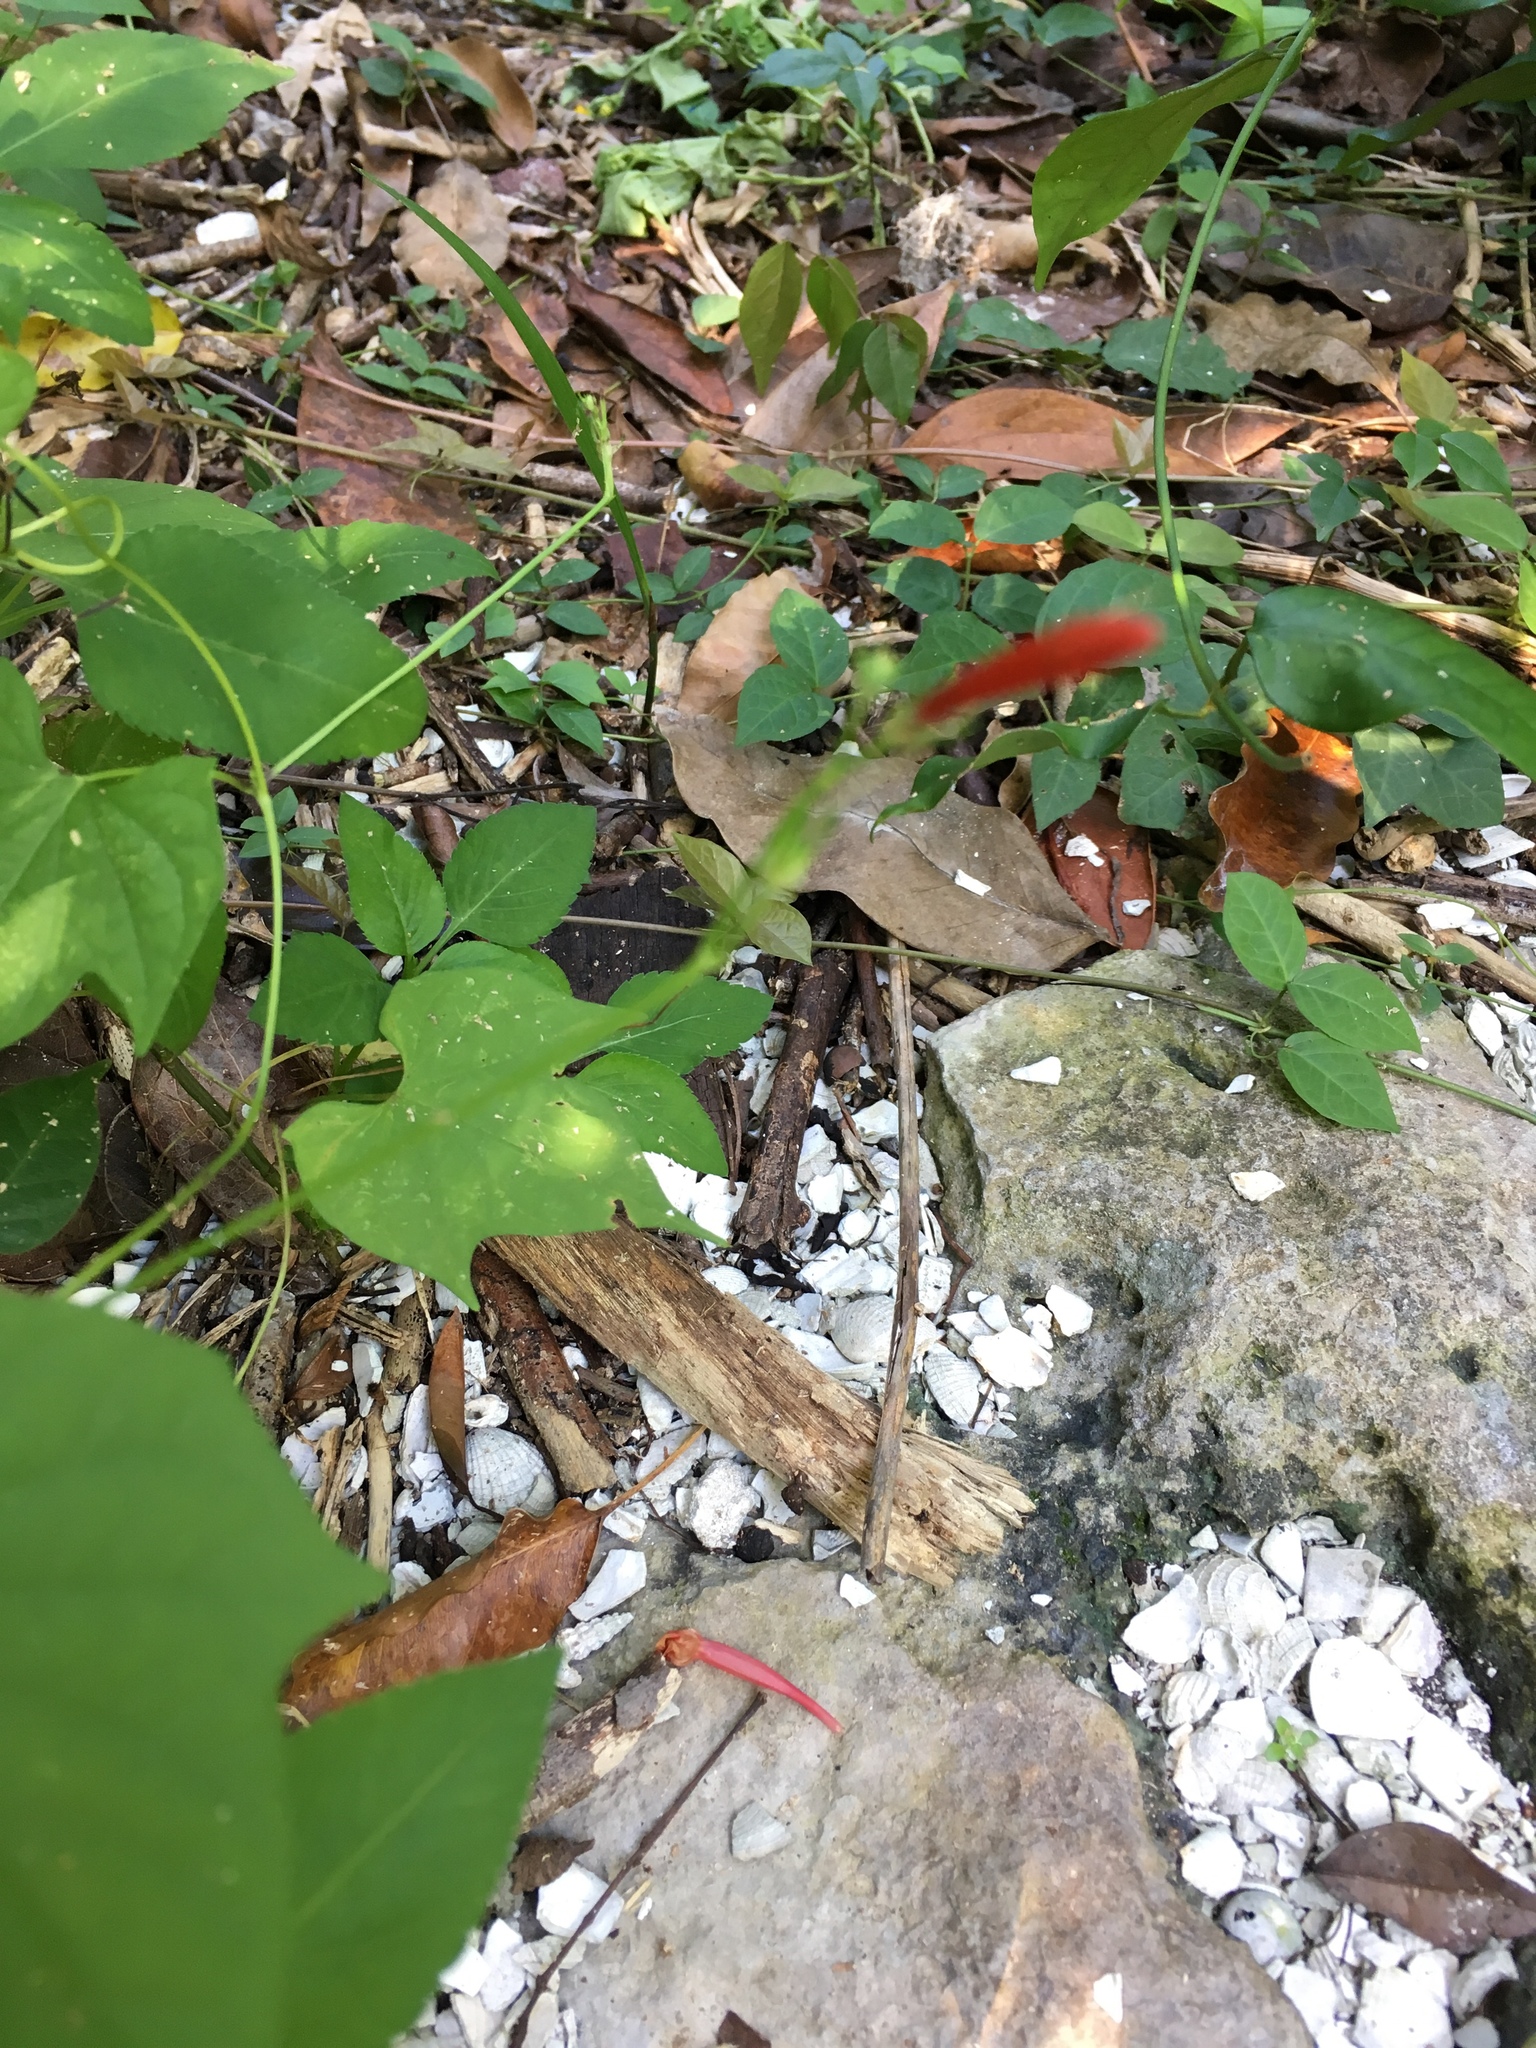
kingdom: Plantae
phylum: Tracheophyta
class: Magnoliopsida
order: Solanales
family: Convolvulaceae
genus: Ipomoea
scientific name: Ipomoea hederifolia
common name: Ivy-leaf morning-glory
